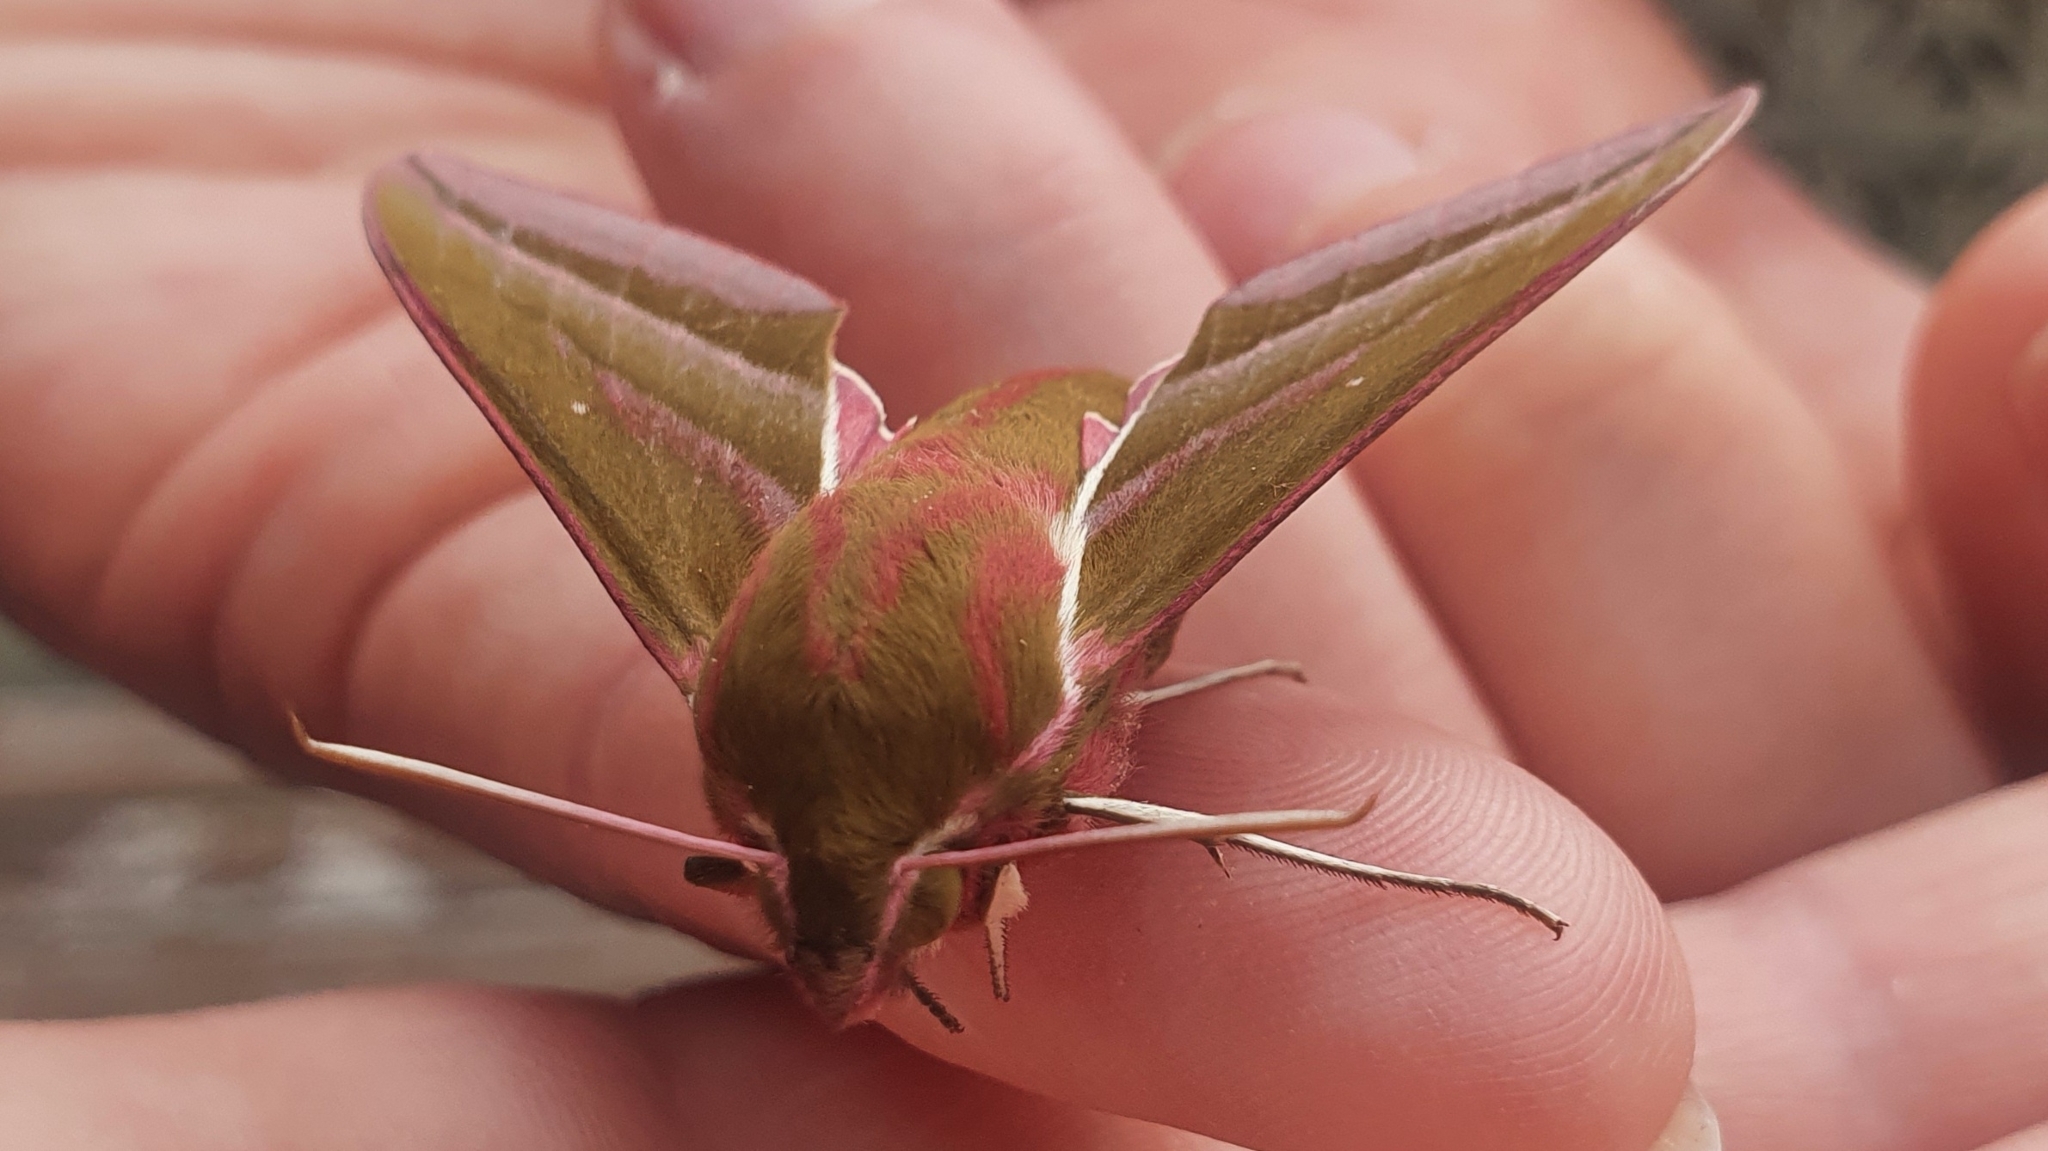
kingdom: Animalia
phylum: Arthropoda
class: Insecta
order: Lepidoptera
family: Sphingidae
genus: Deilephila
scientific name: Deilephila elpenor
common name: Elephant hawk-moth
